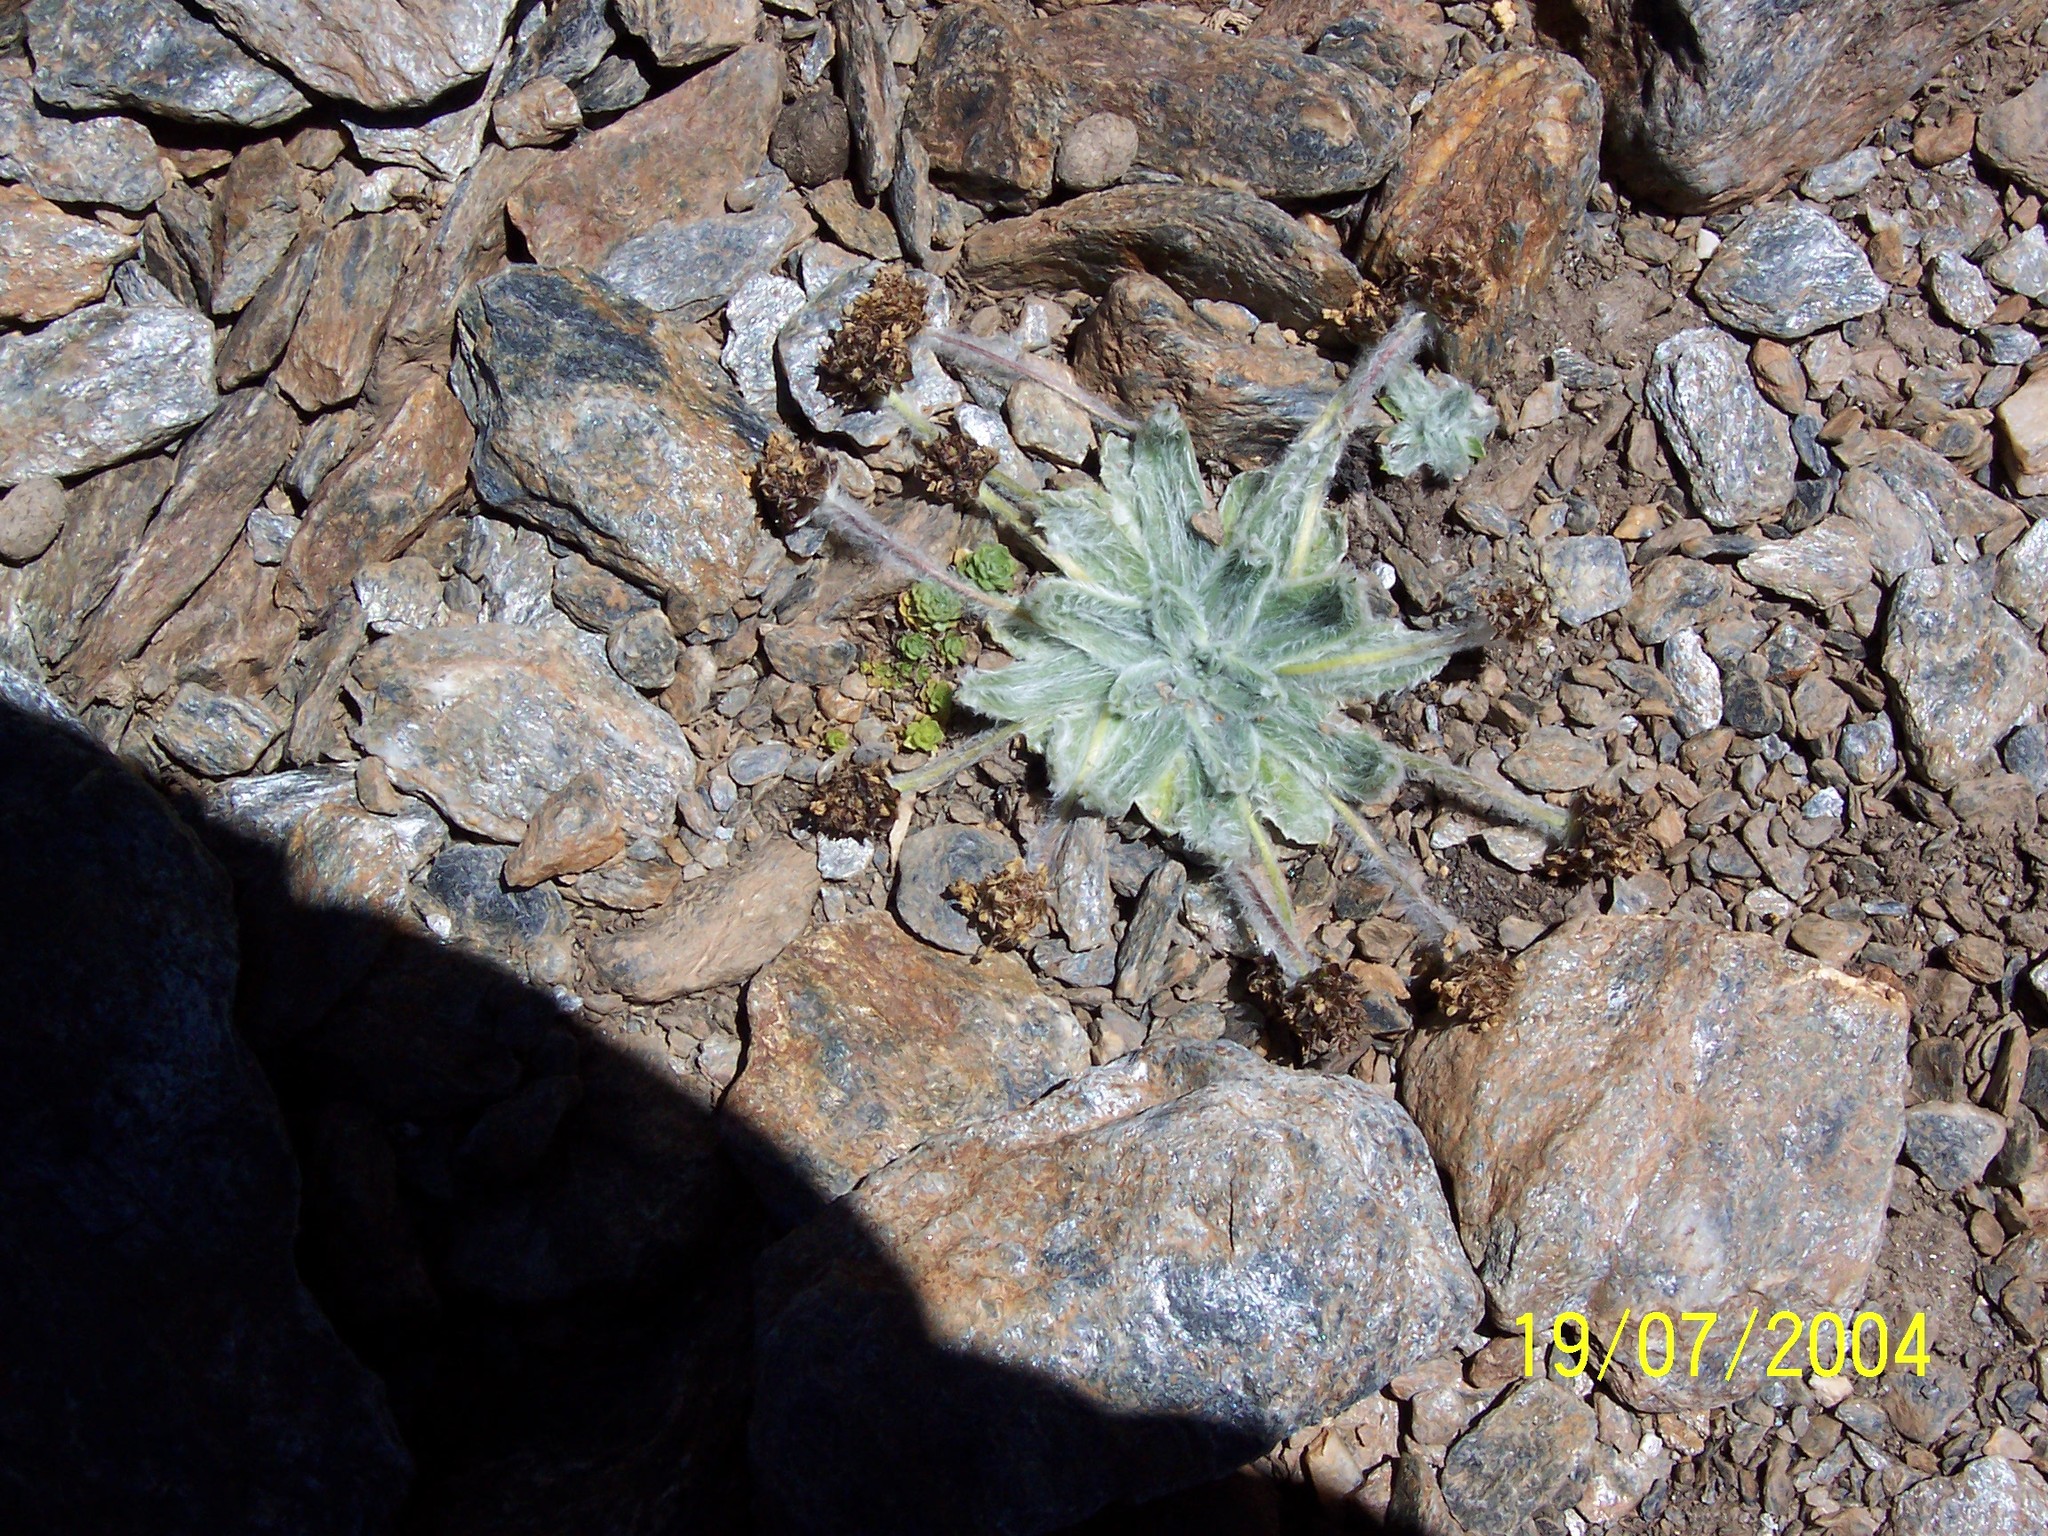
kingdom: Plantae
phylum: Tracheophyta
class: Magnoliopsida
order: Lamiales
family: Plantaginaceae
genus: Plantago
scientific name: Plantago nivalis
